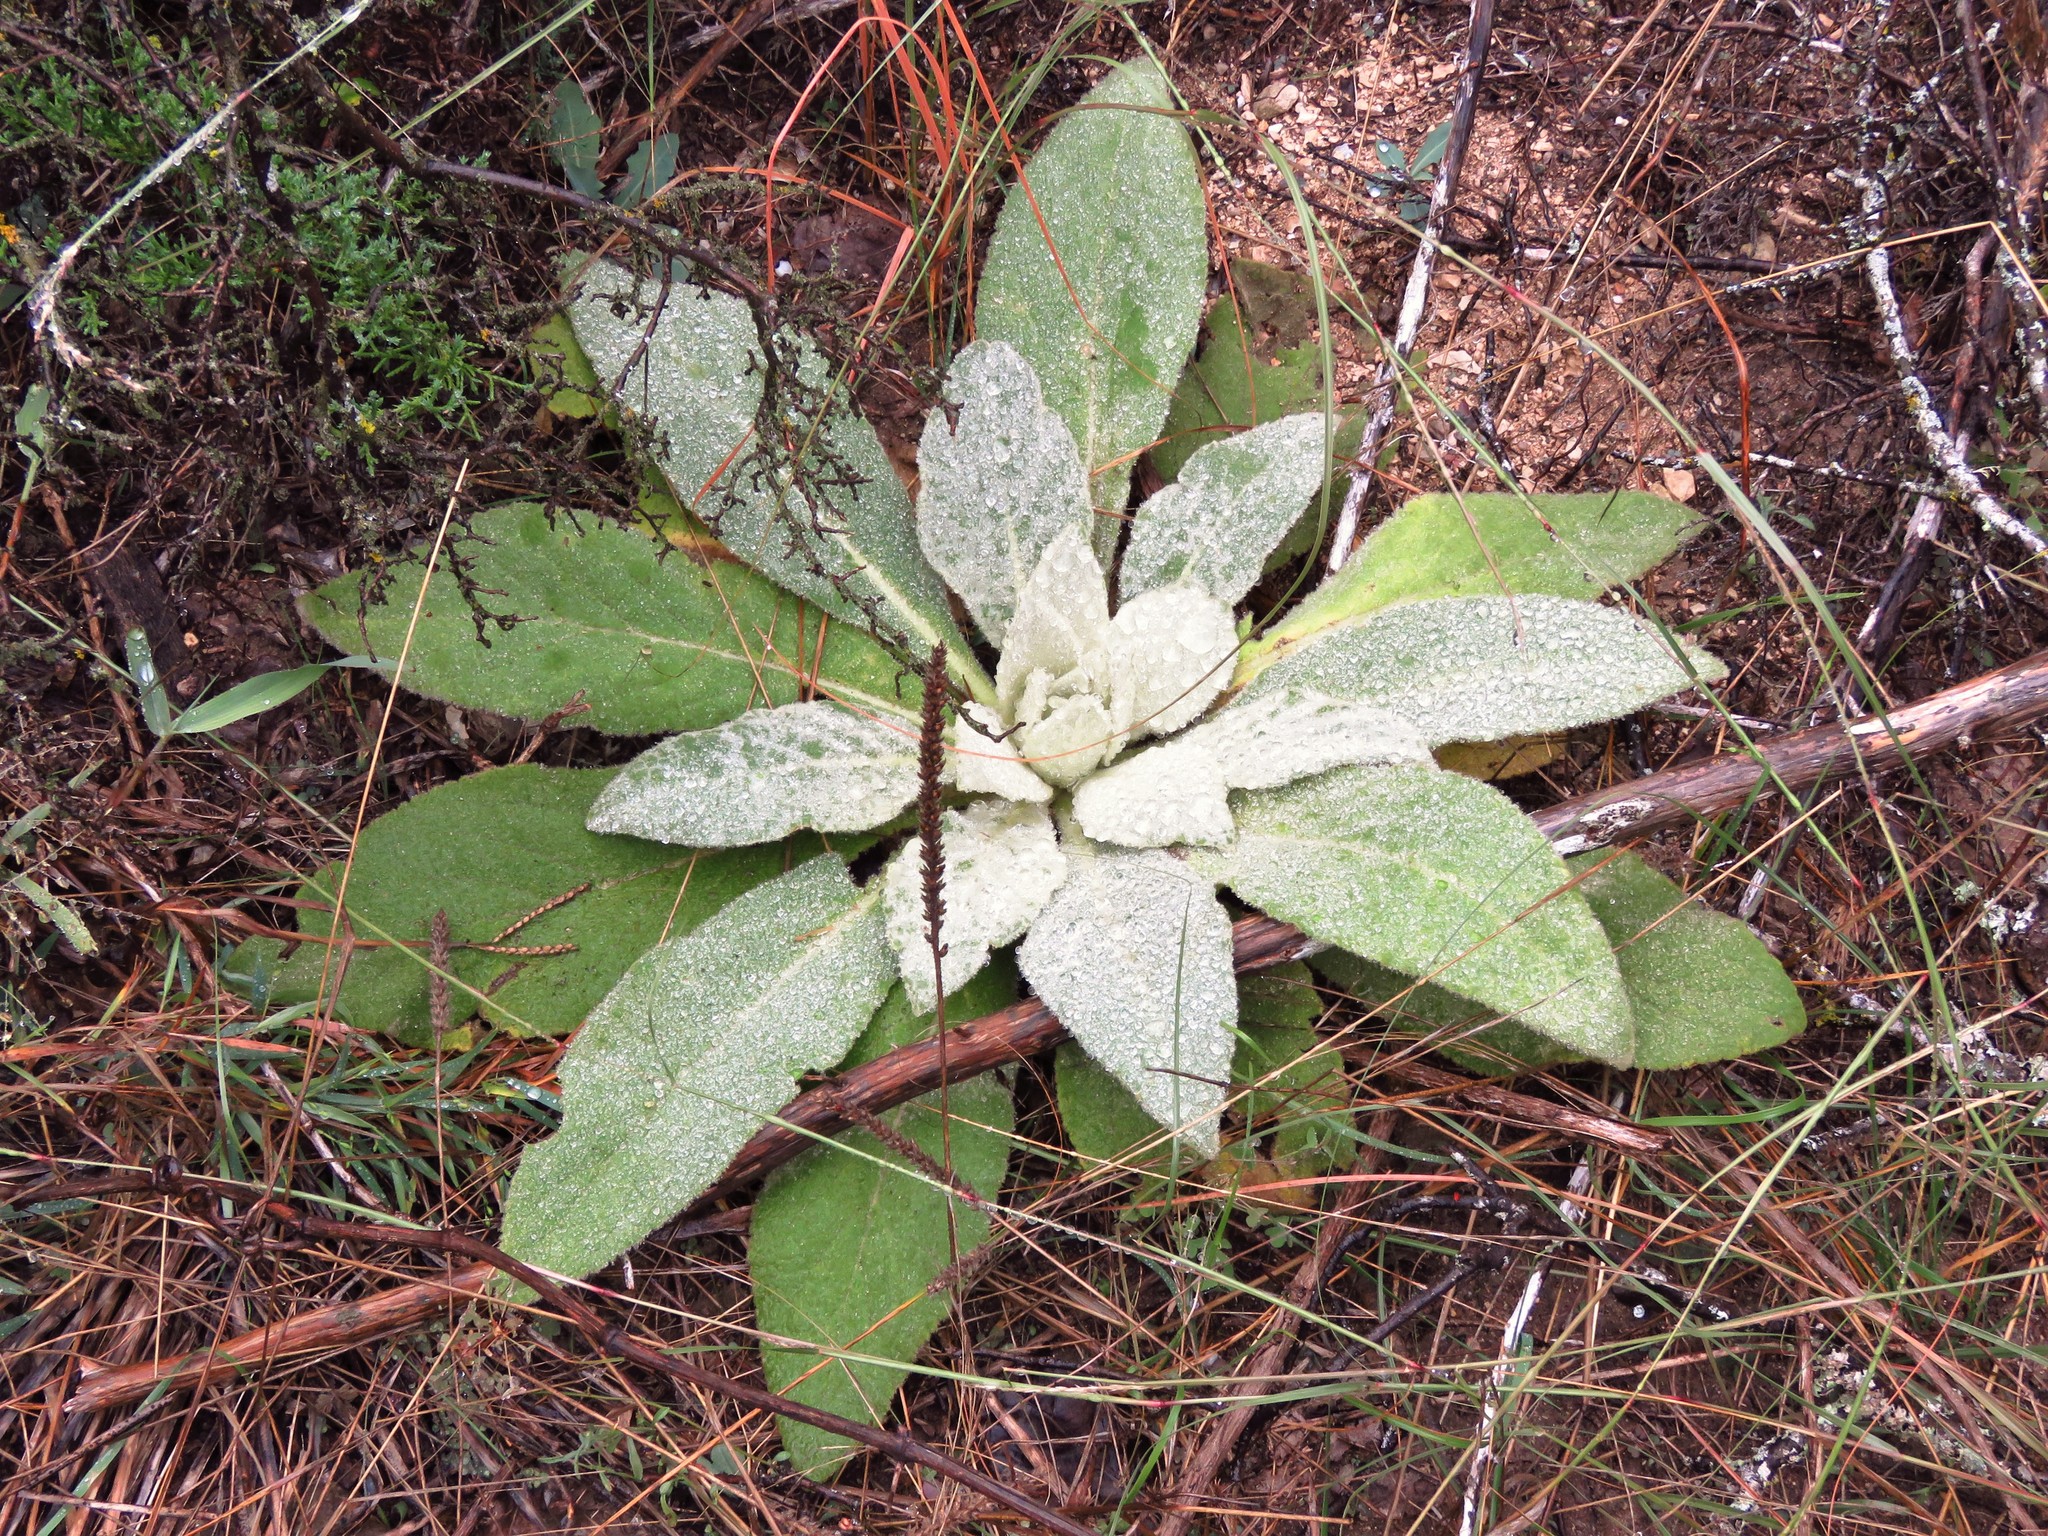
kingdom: Plantae
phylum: Tracheophyta
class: Magnoliopsida
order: Lamiales
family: Scrophulariaceae
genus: Verbascum
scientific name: Verbascum thapsus
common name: Common mullein
